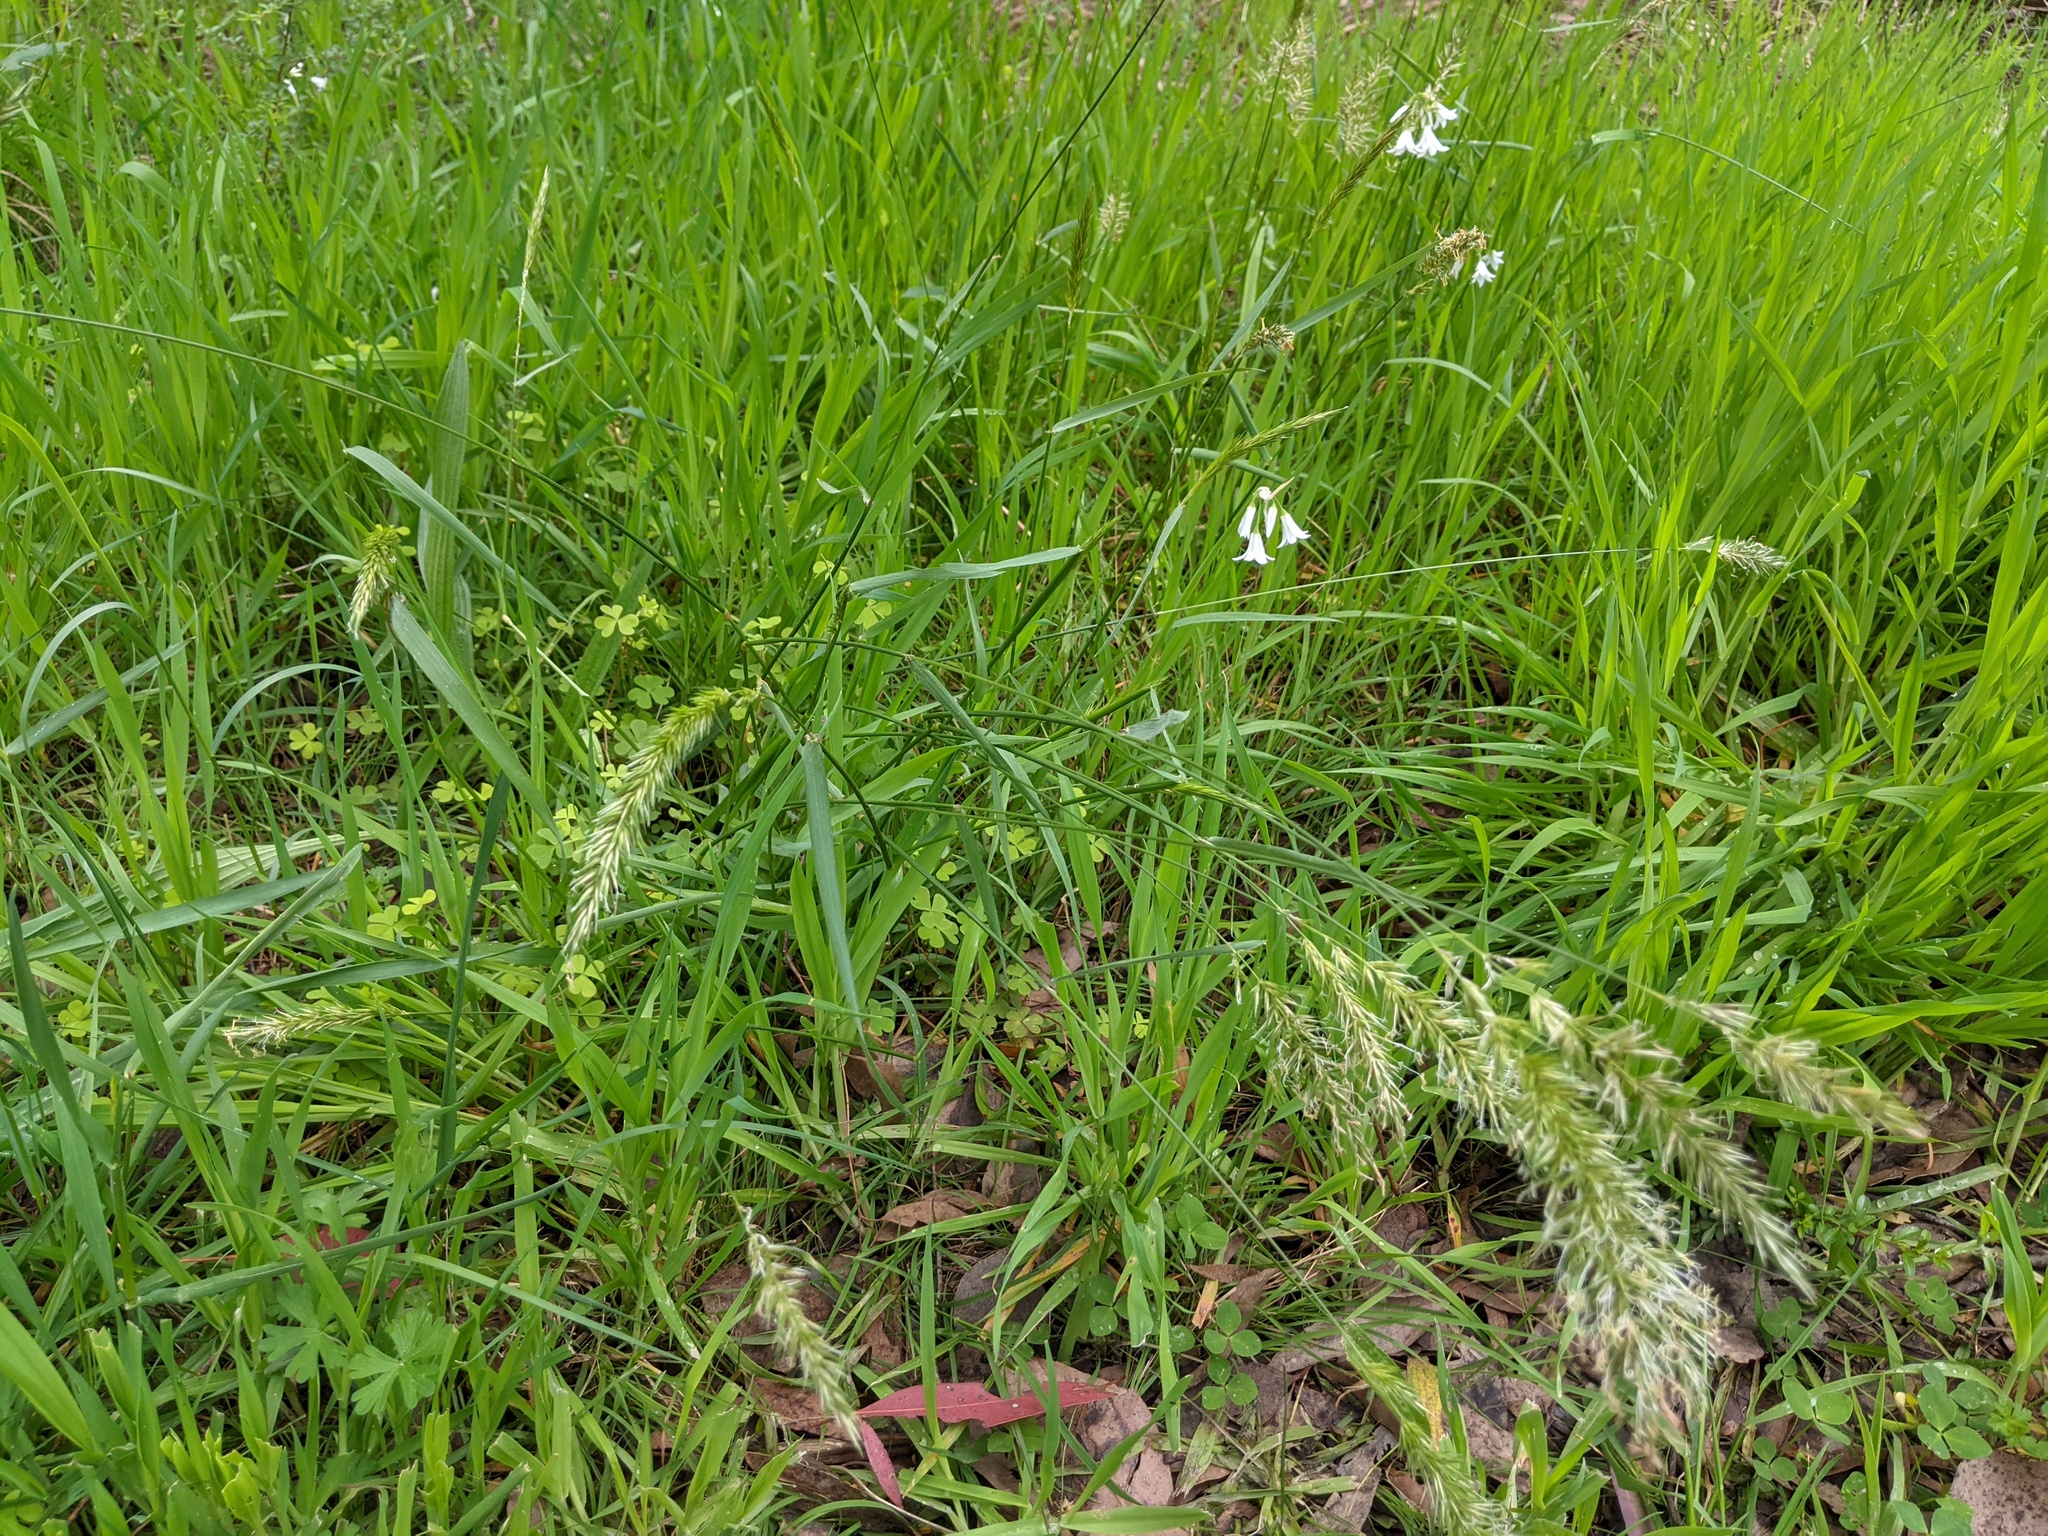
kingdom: Plantae
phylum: Tracheophyta
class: Liliopsida
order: Poales
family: Poaceae
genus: Anthoxanthum
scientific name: Anthoxanthum odoratum
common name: Sweet vernalgrass
